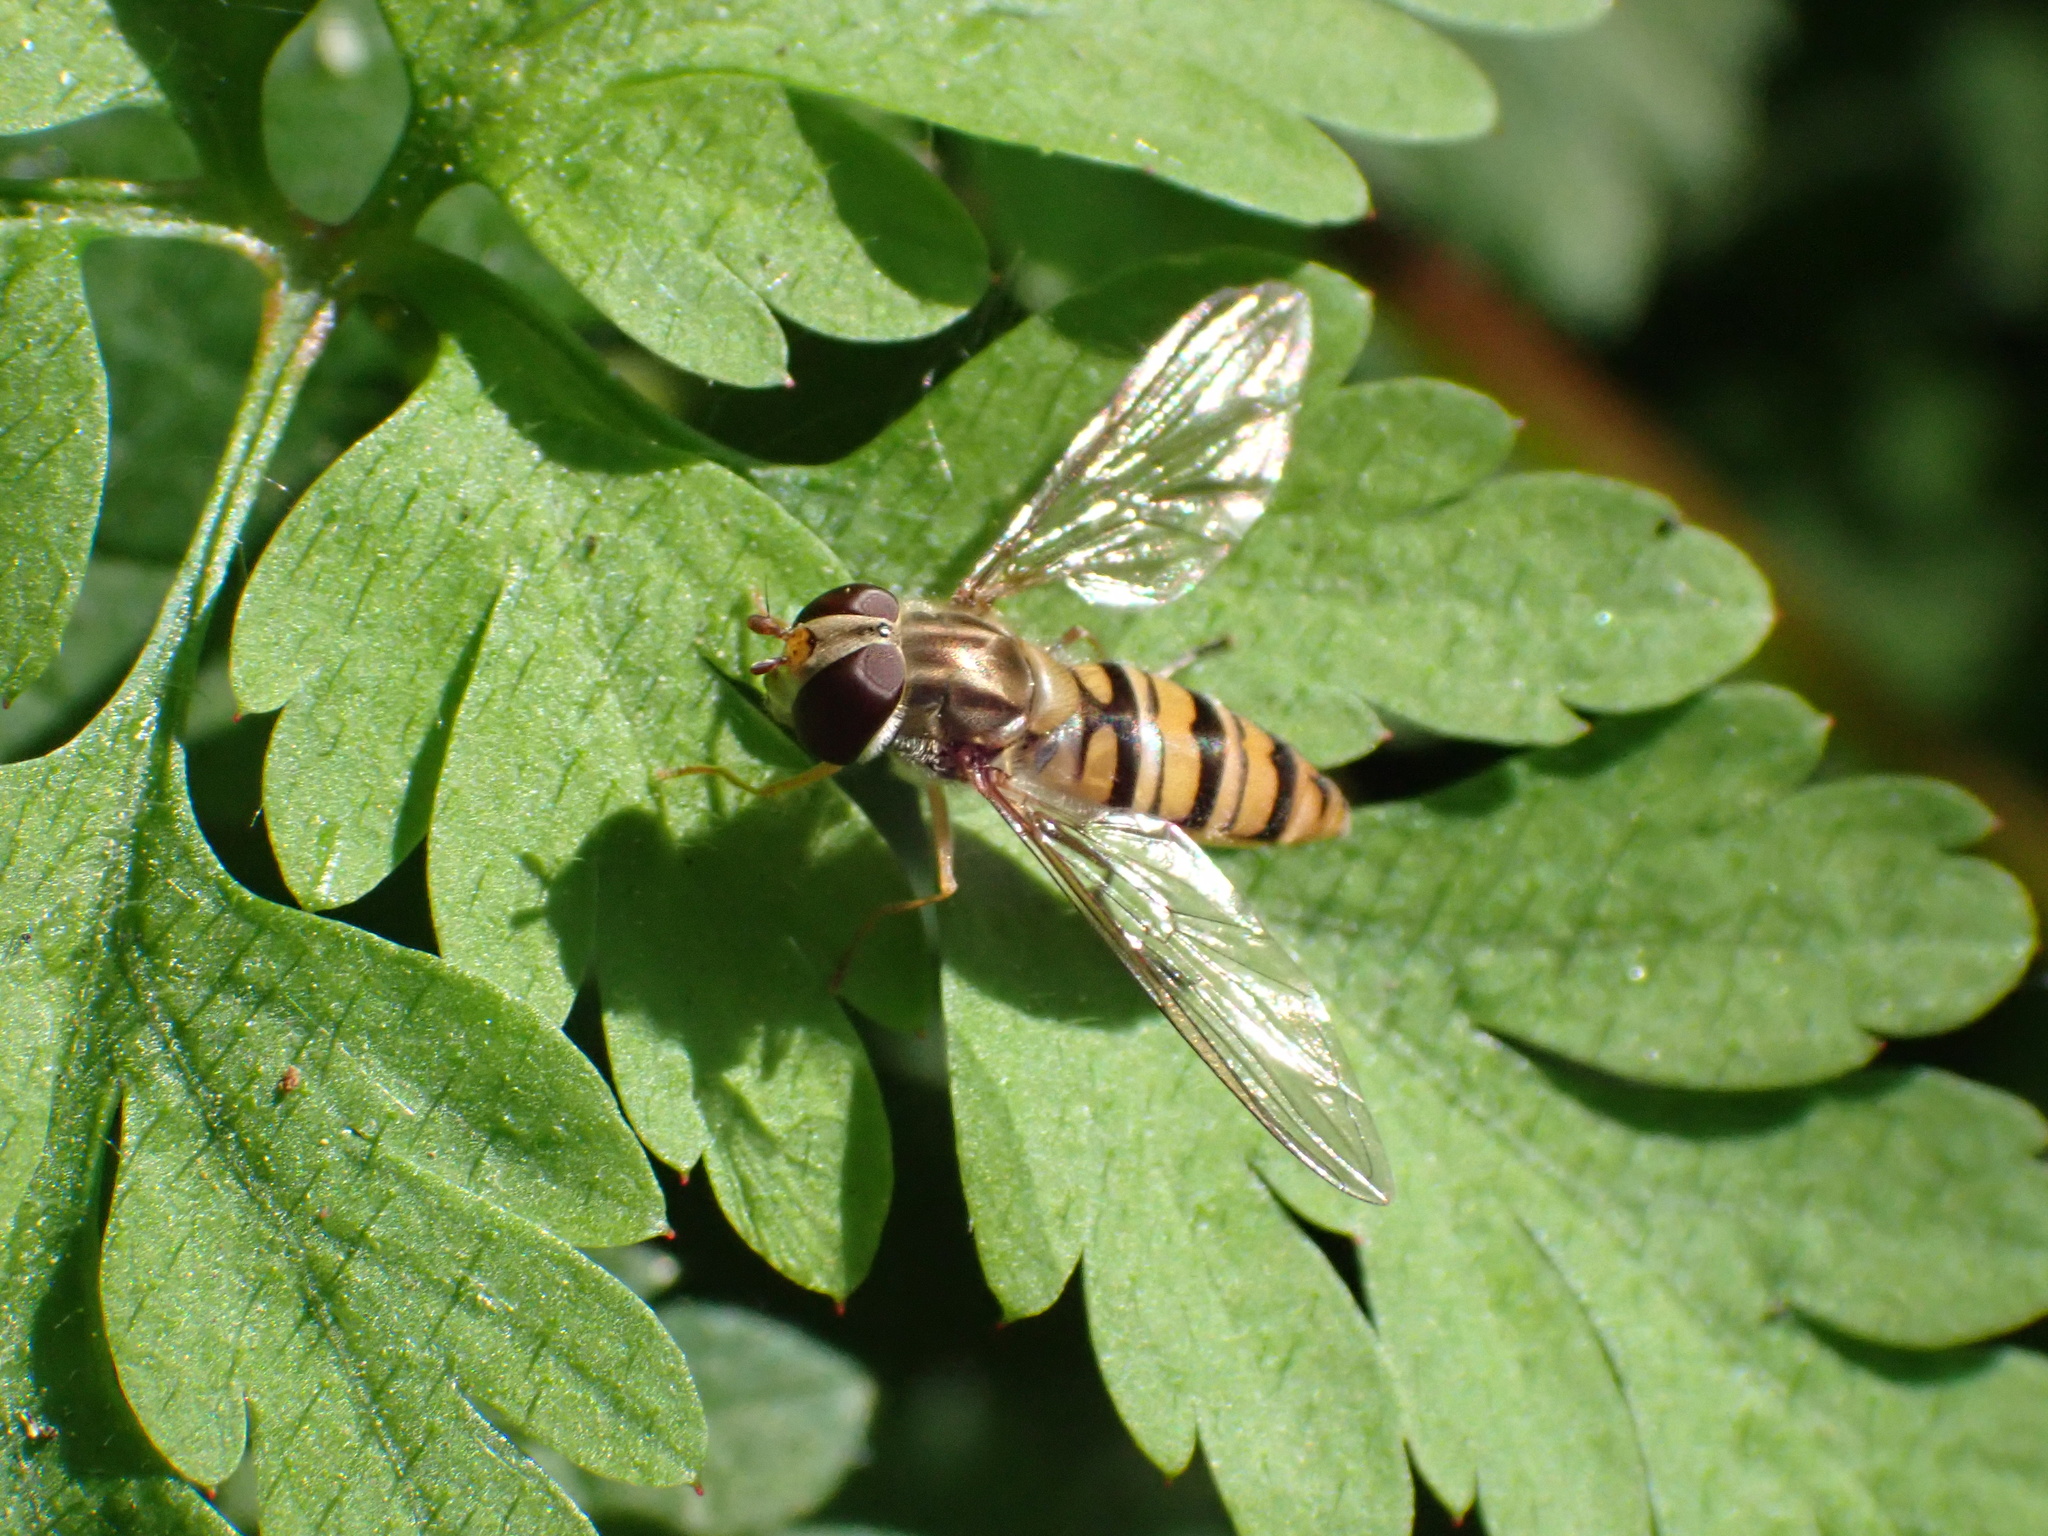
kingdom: Animalia
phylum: Arthropoda
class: Insecta
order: Diptera
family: Syrphidae
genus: Episyrphus
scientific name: Episyrphus balteatus
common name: Marmalade hoverfly
